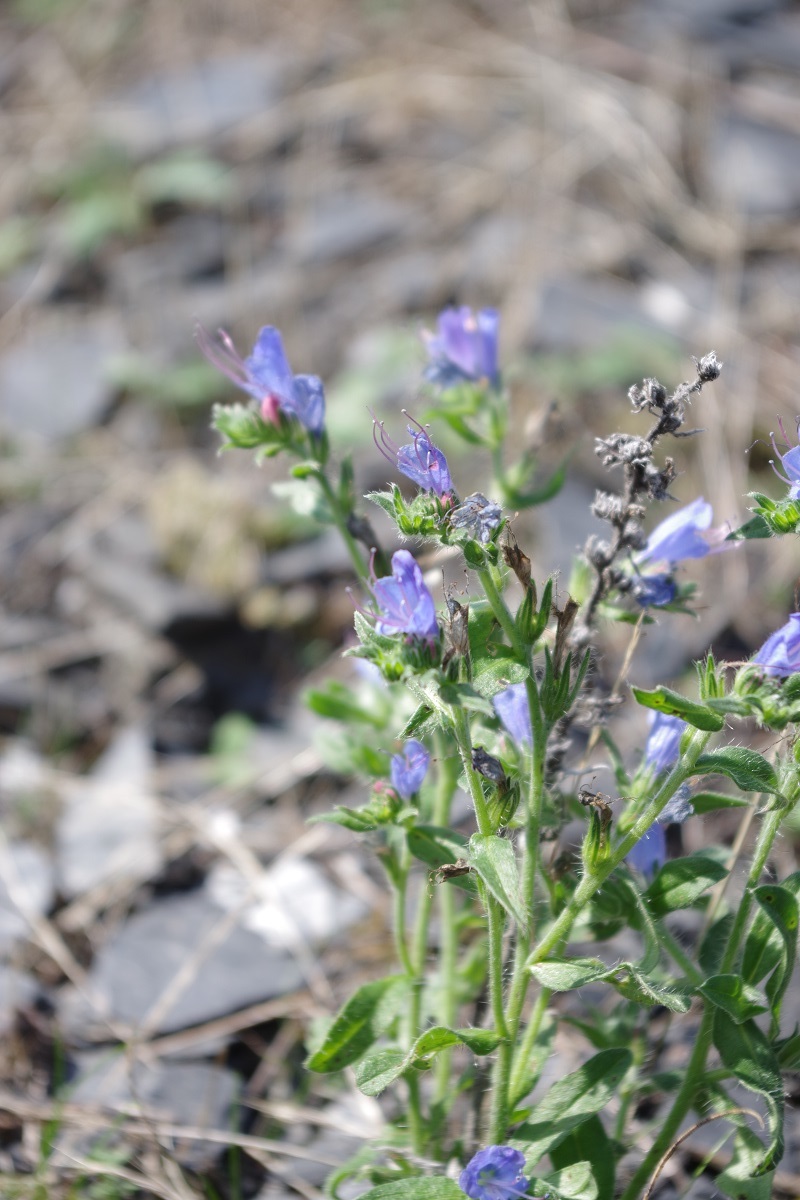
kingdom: Plantae
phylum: Tracheophyta
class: Magnoliopsida
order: Boraginales
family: Boraginaceae
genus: Echium
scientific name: Echium vulgare
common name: Common viper's bugloss
